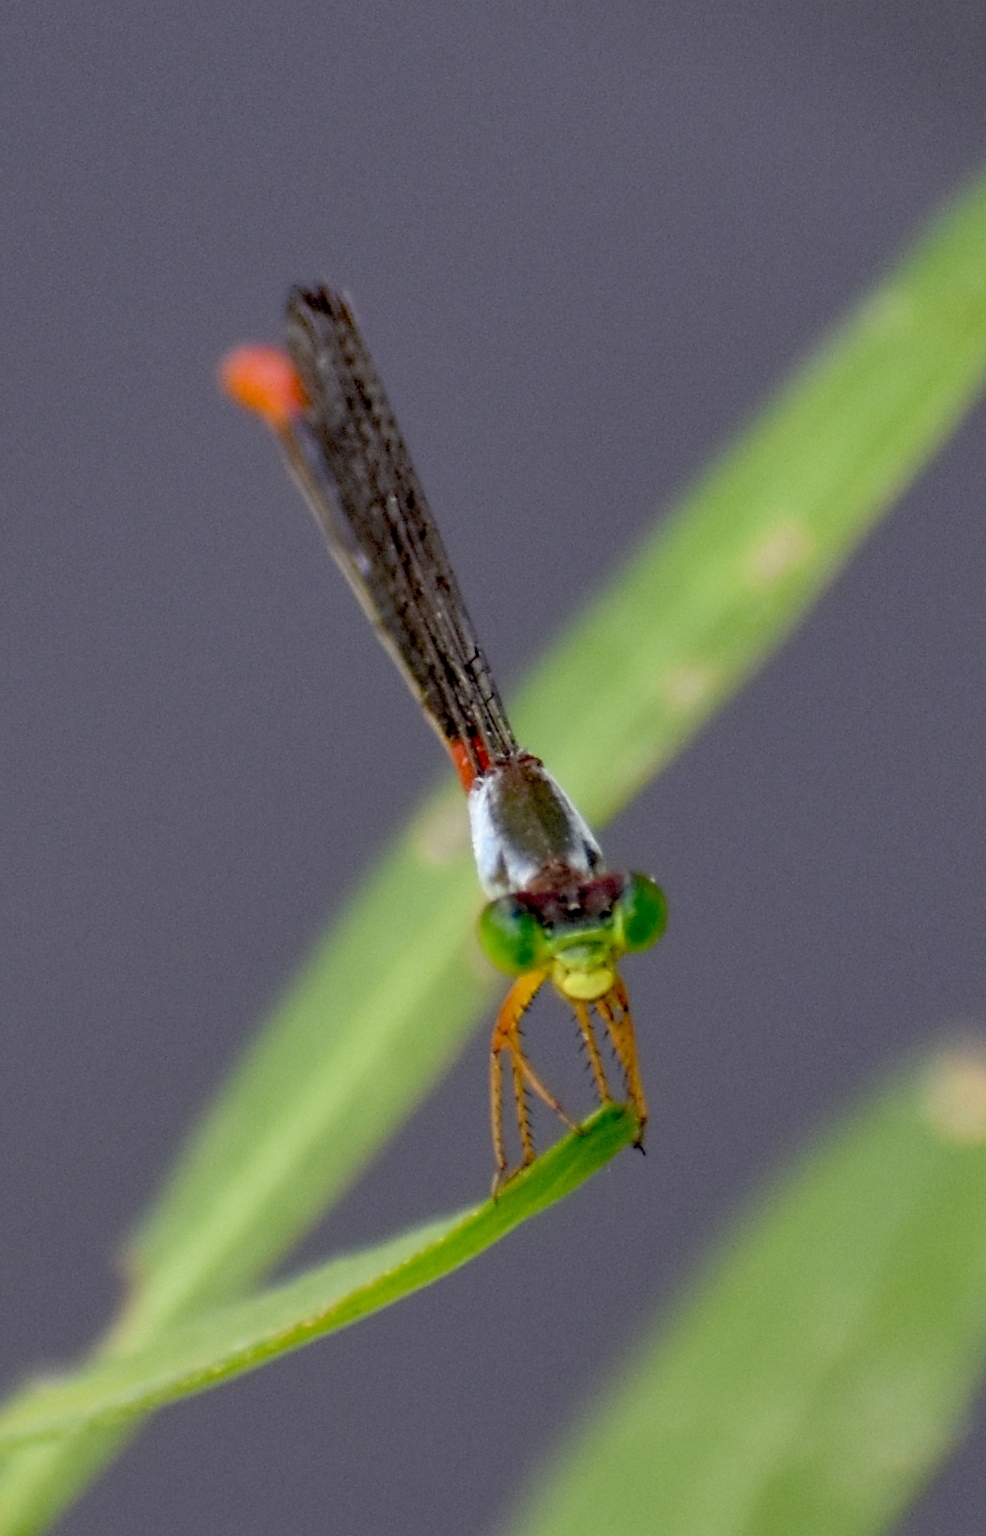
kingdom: Animalia
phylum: Arthropoda
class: Insecta
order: Odonata
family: Coenagrionidae
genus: Ceriagrion
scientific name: Ceriagrion cerinorubellum
